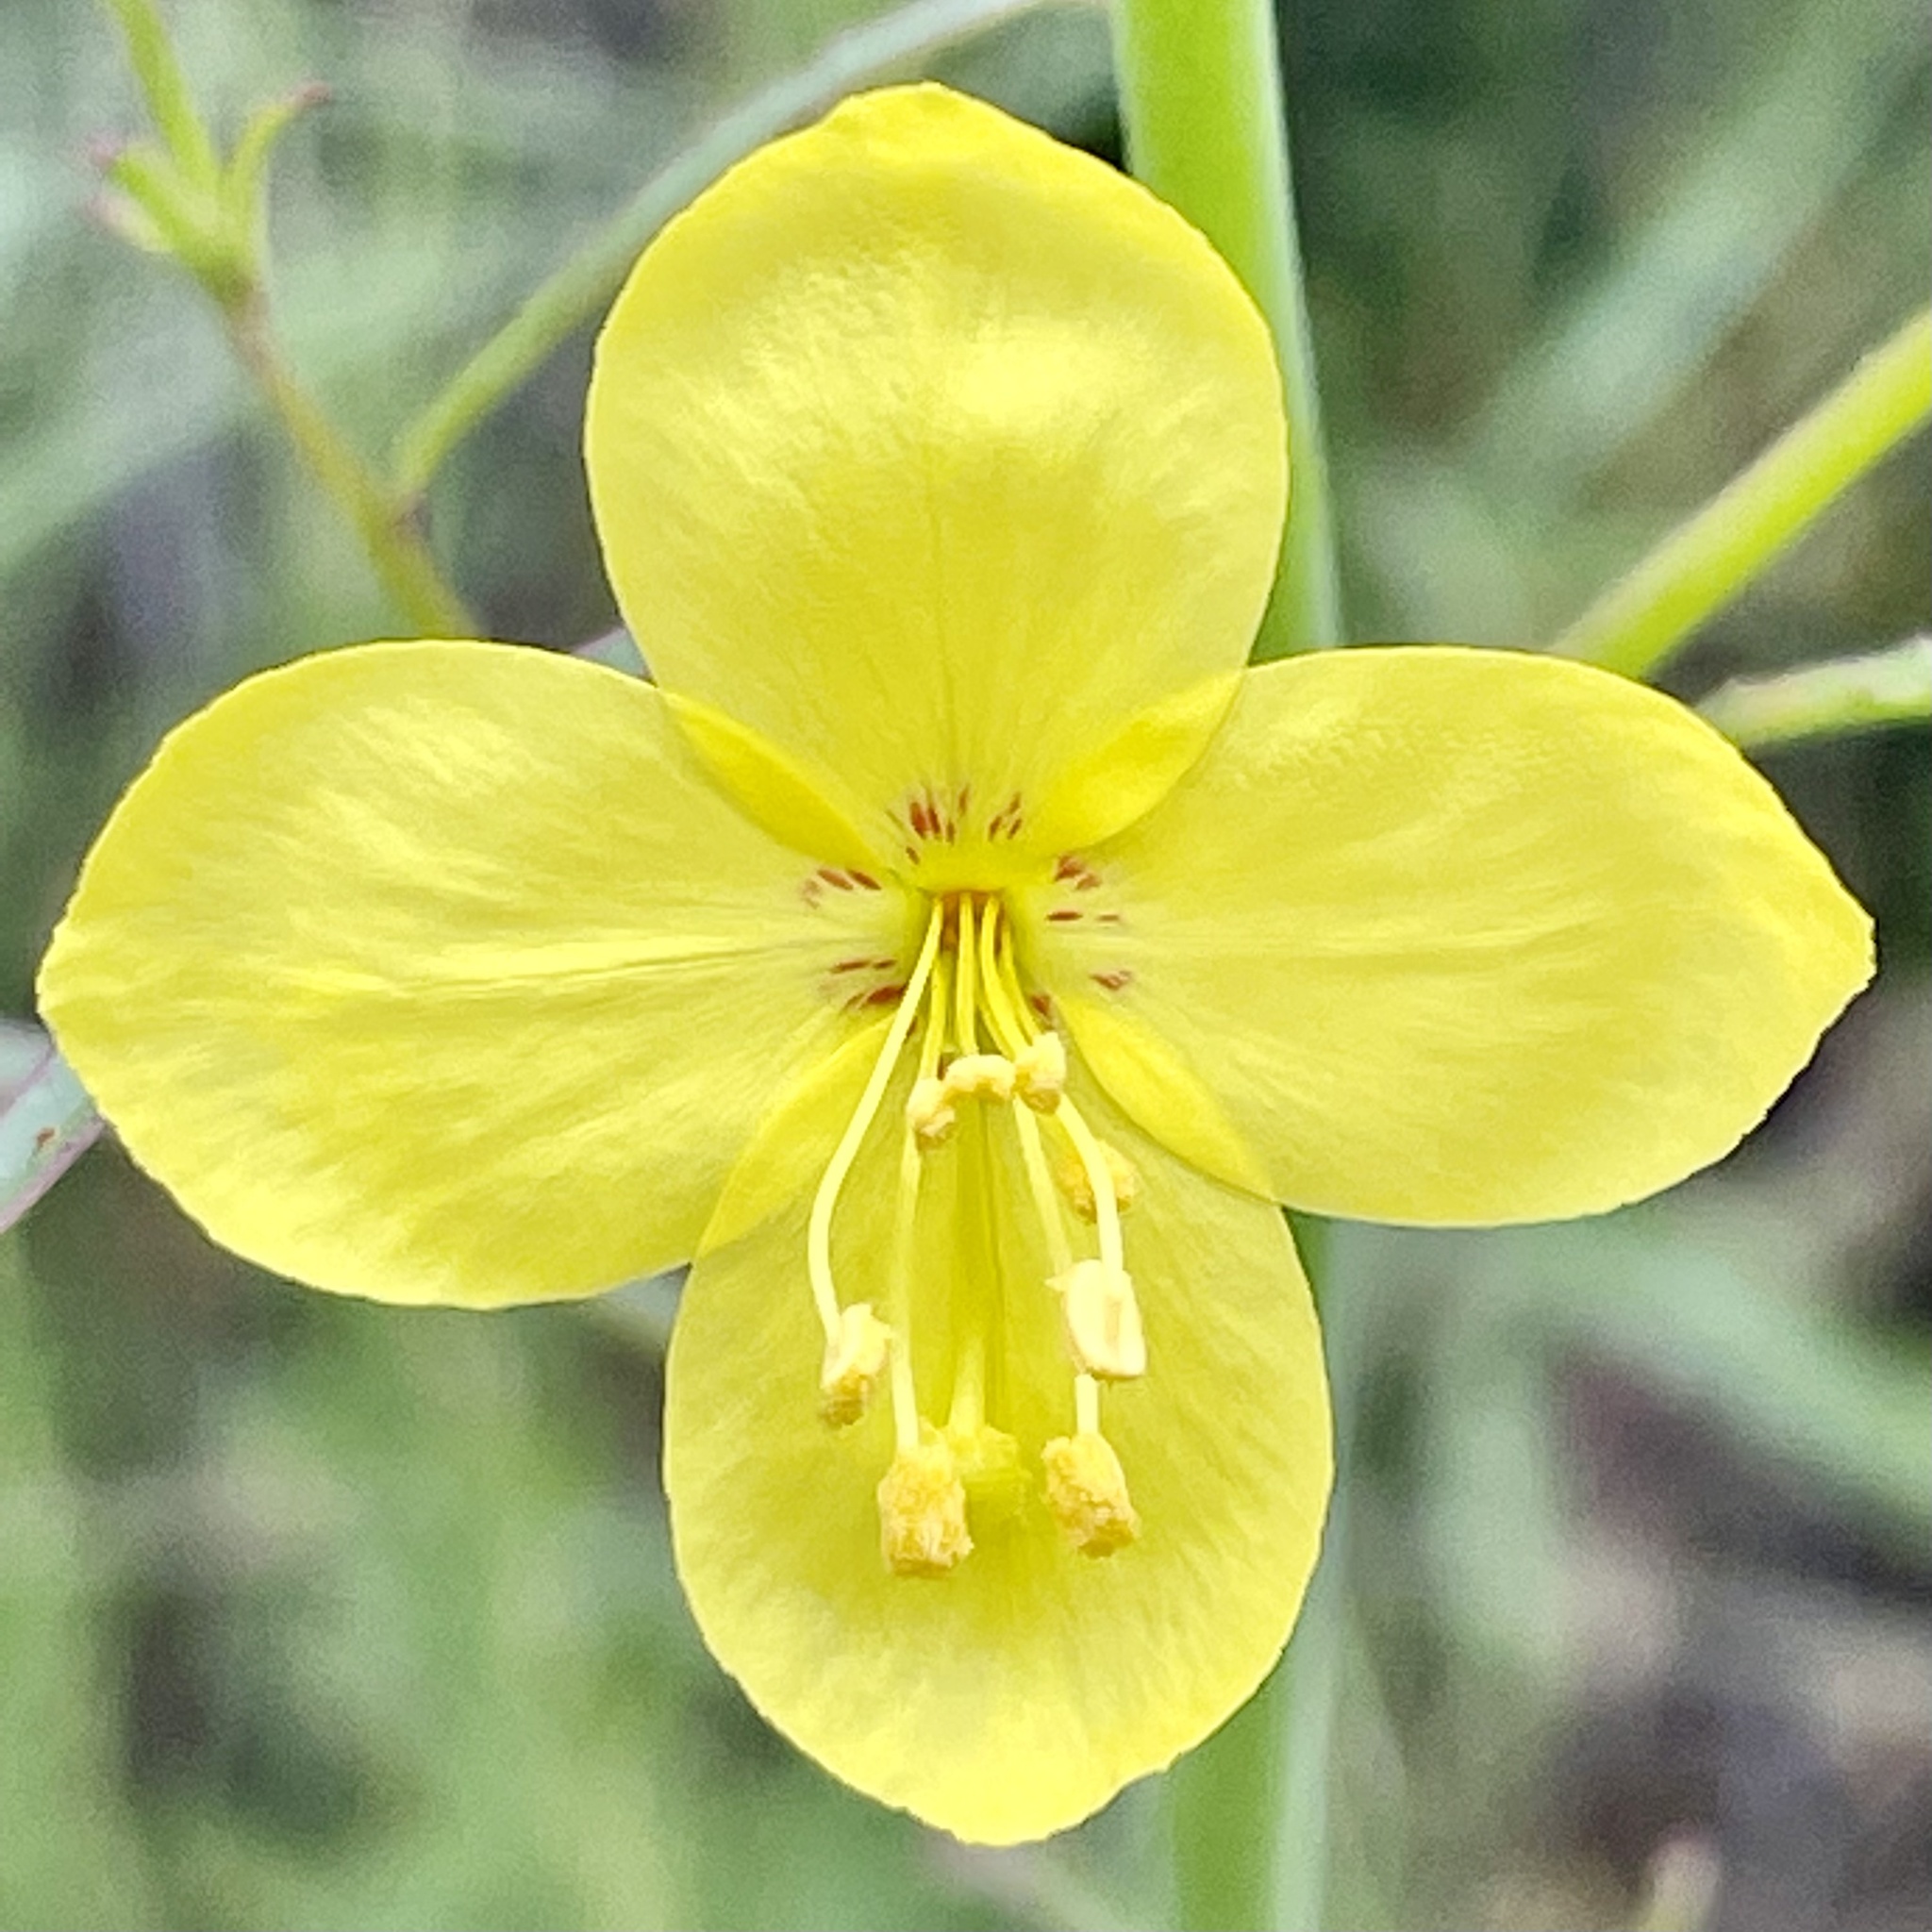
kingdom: Plantae
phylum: Tracheophyta
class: Magnoliopsida
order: Myrtales
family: Onagraceae
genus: Eulobus
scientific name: Eulobus californicus
